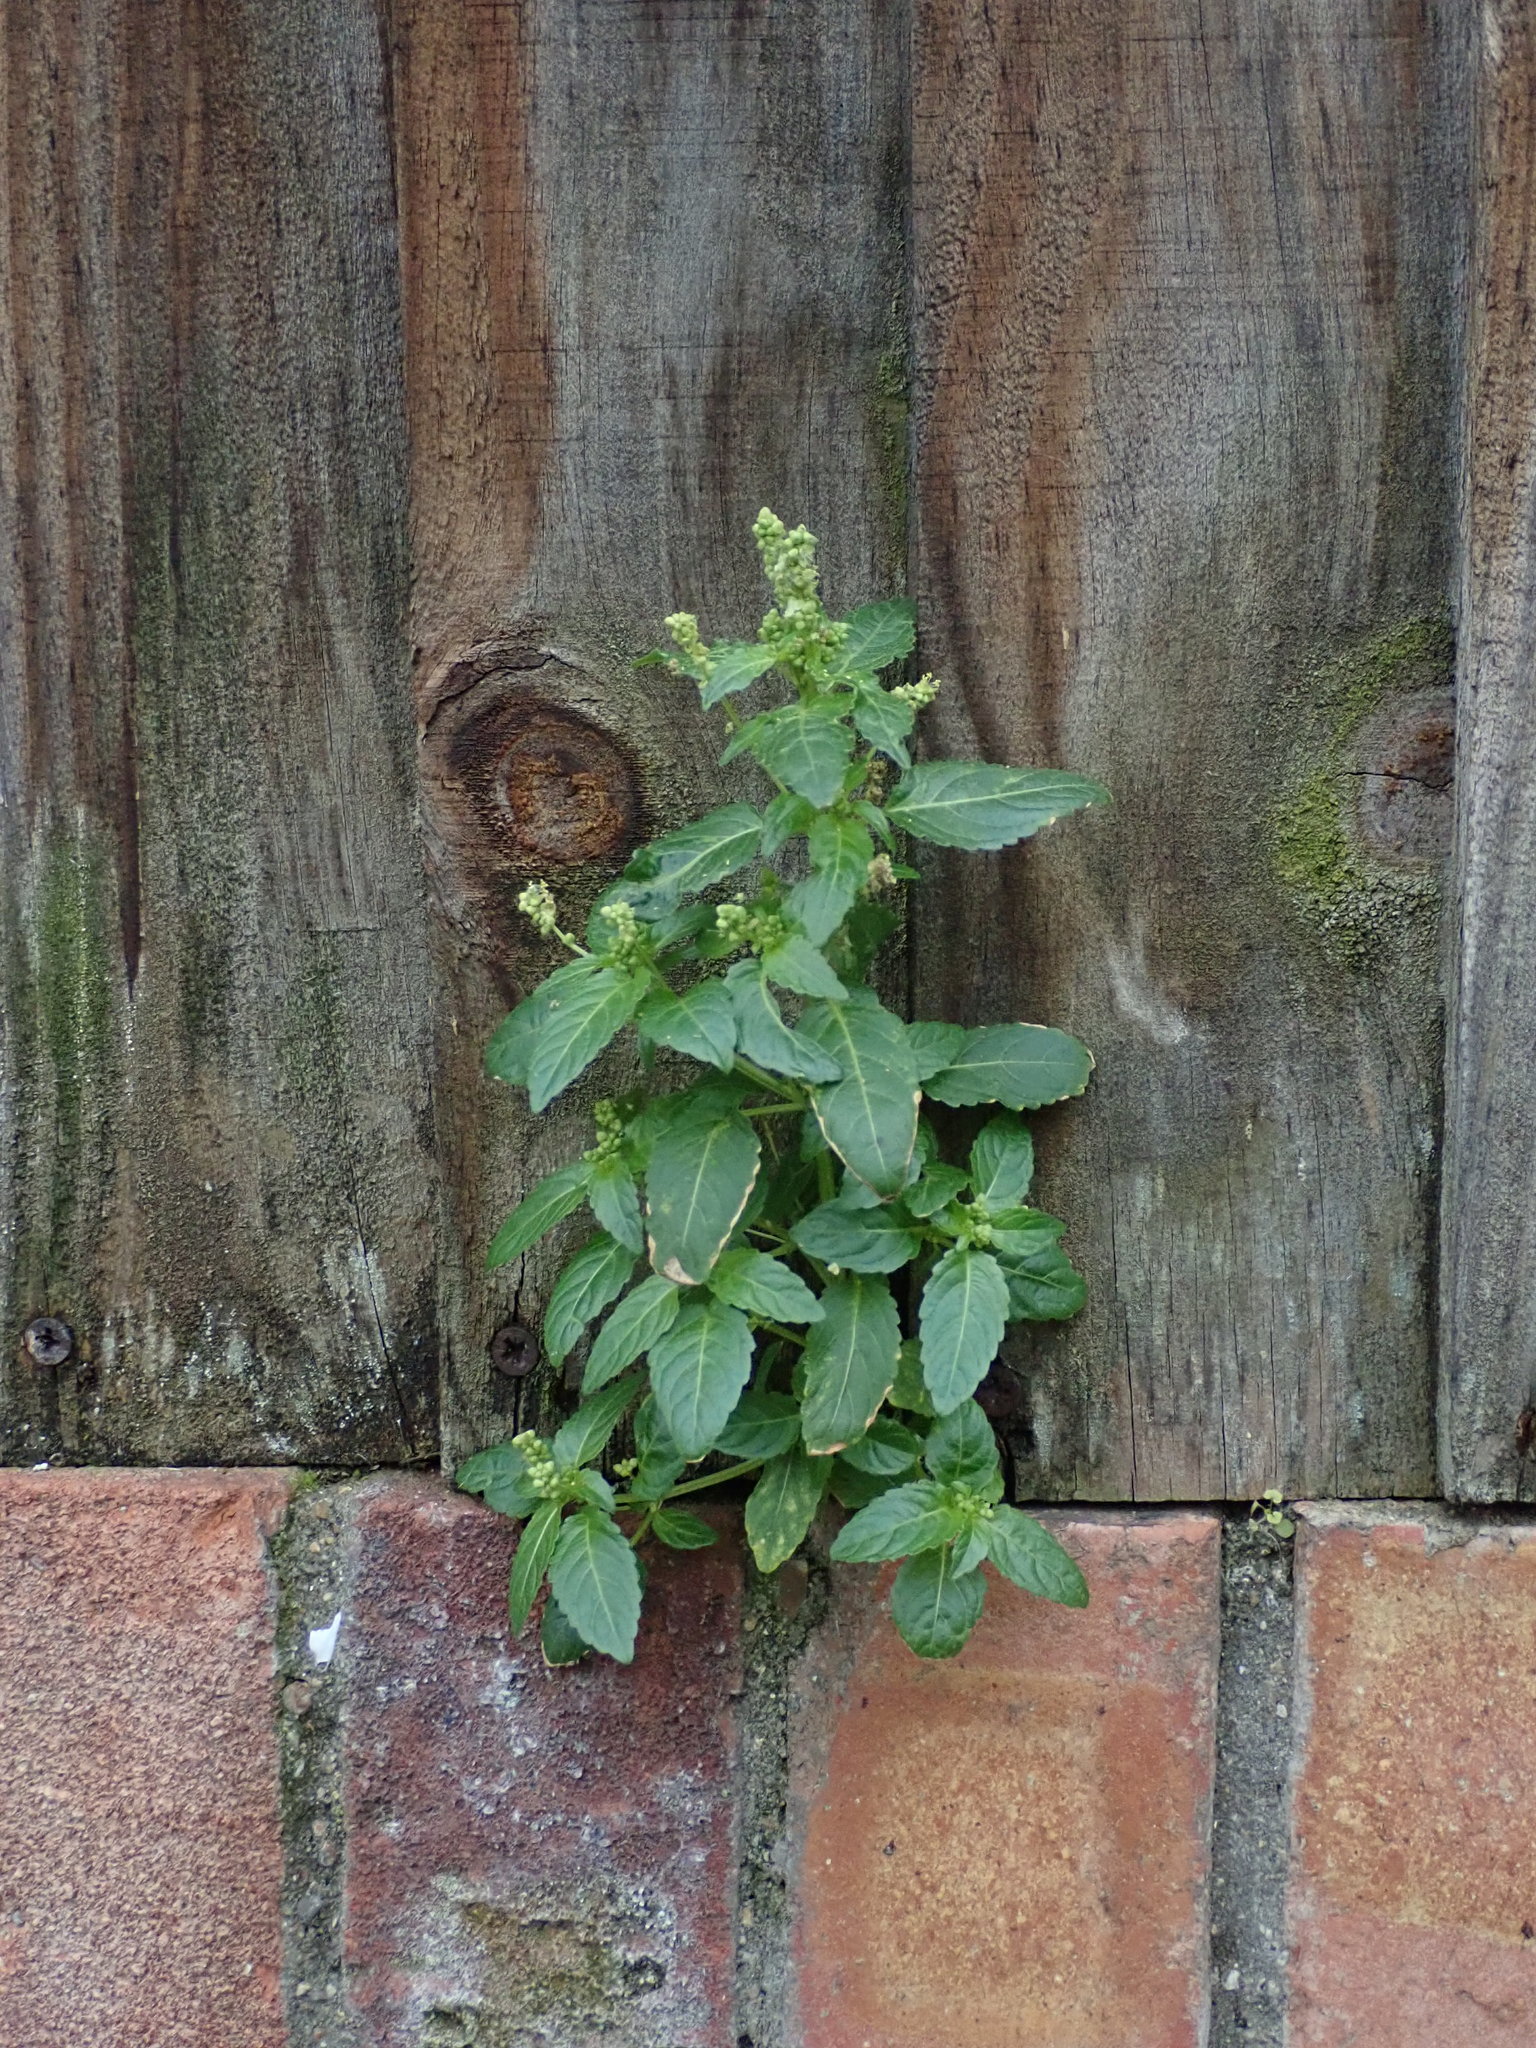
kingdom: Plantae
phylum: Tracheophyta
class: Magnoliopsida
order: Malpighiales
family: Euphorbiaceae
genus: Mercurialis
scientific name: Mercurialis annua
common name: Annual mercury
